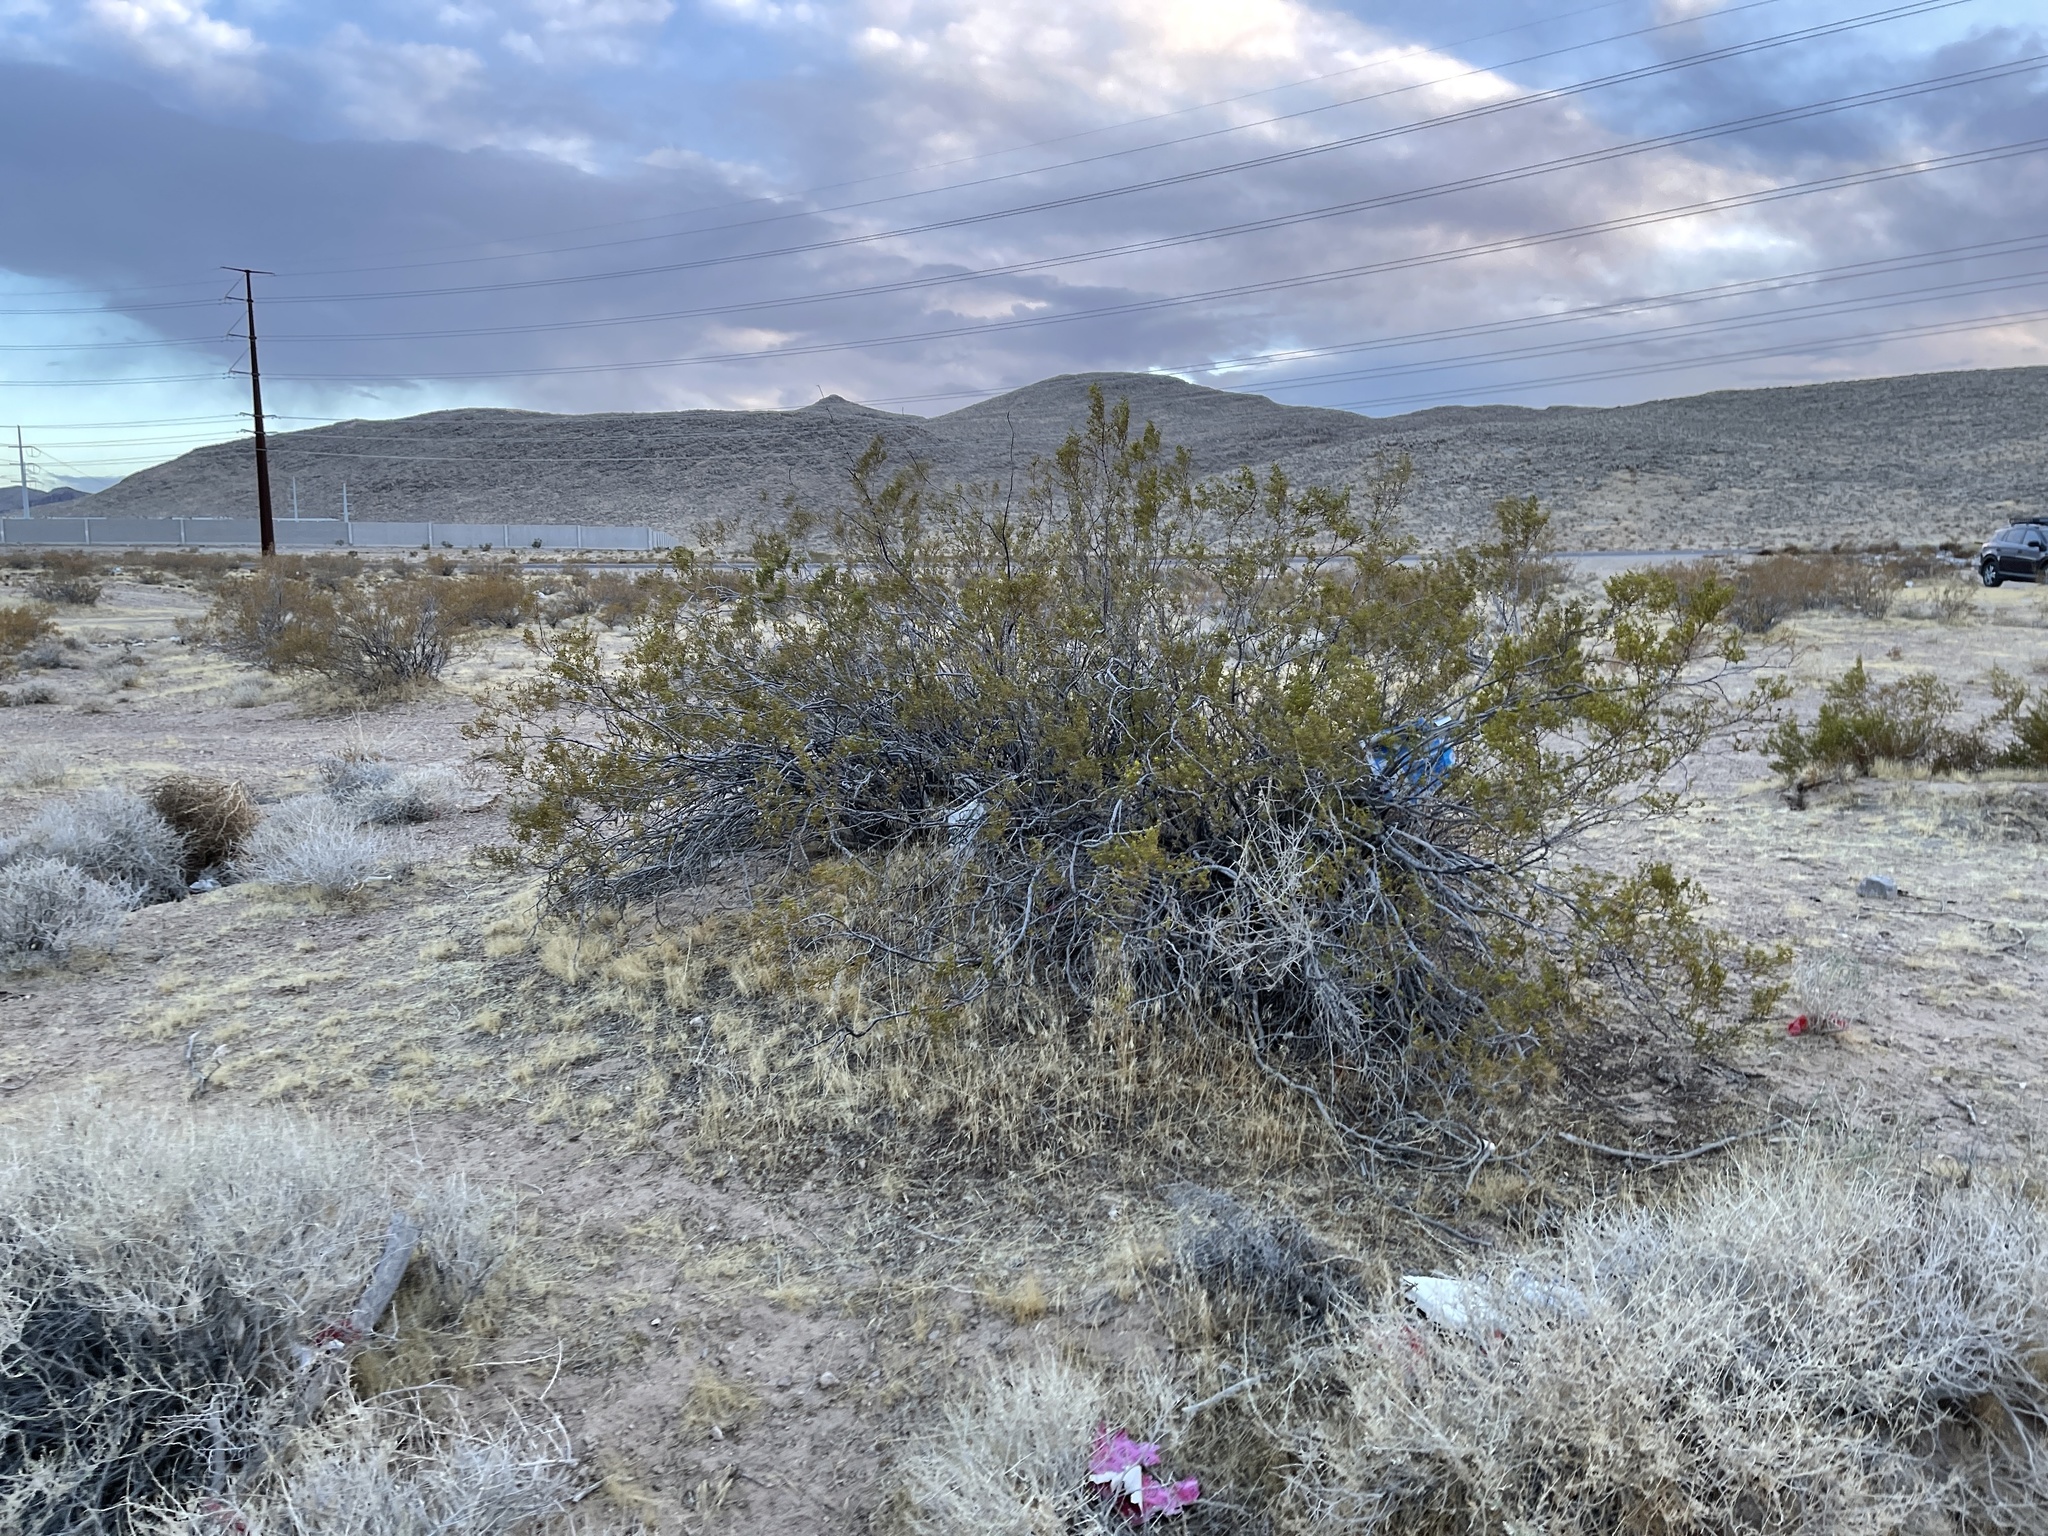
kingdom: Plantae
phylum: Tracheophyta
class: Magnoliopsida
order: Zygophyllales
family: Zygophyllaceae
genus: Larrea
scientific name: Larrea tridentata
